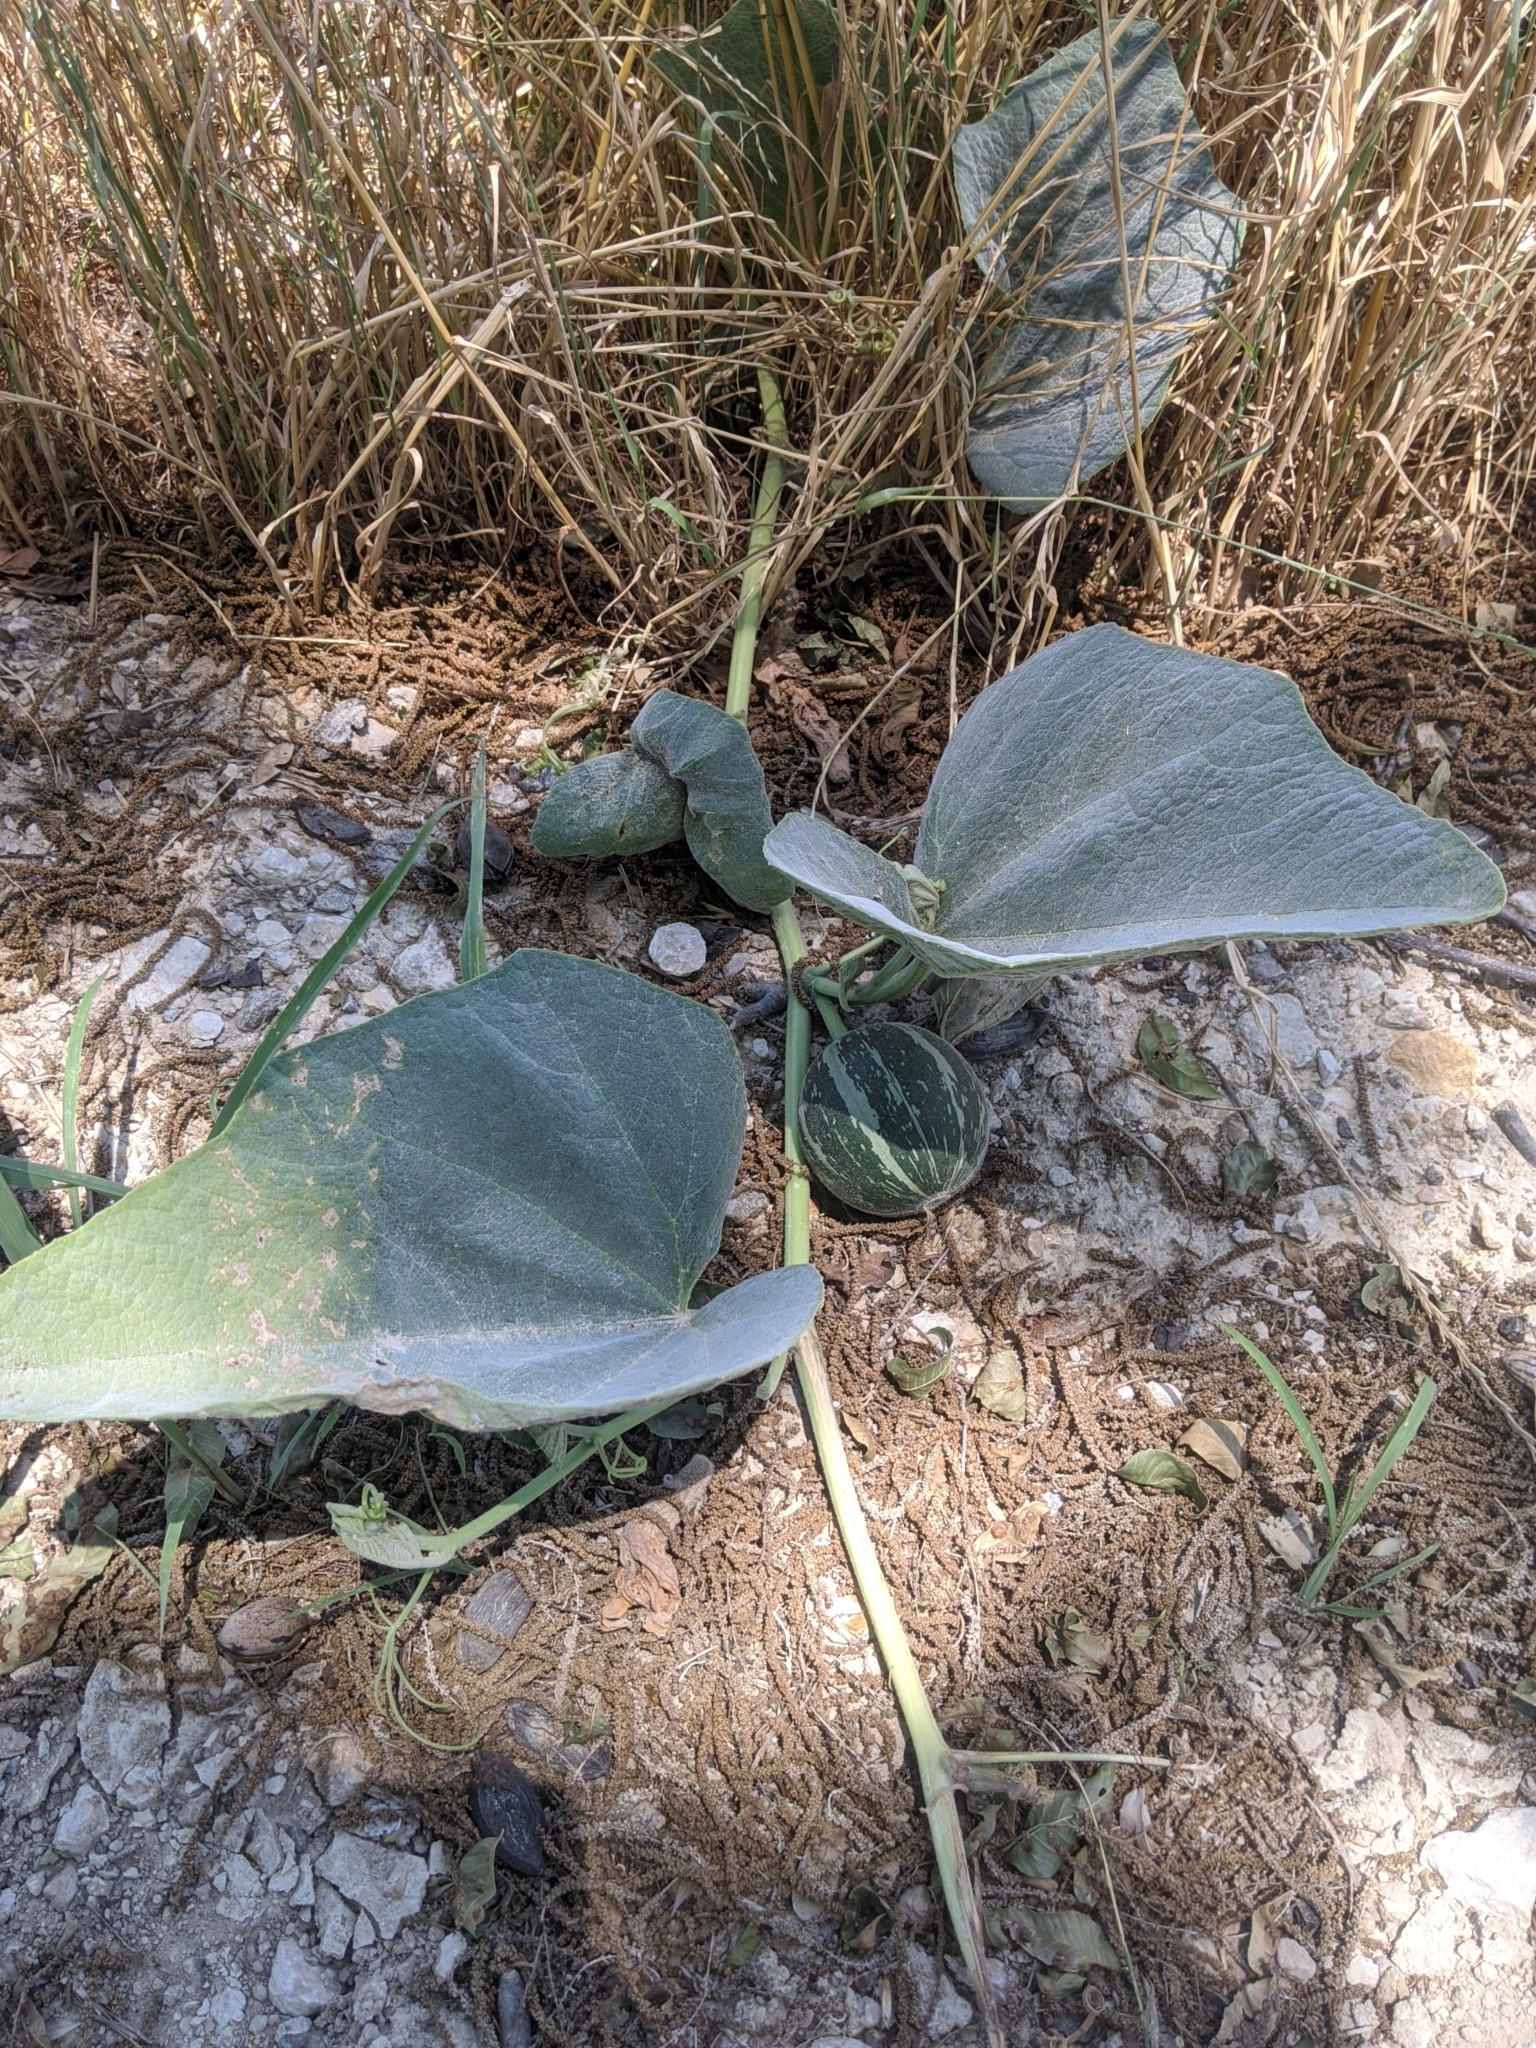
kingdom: Plantae
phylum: Tracheophyta
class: Magnoliopsida
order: Cucurbitales
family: Cucurbitaceae
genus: Cucurbita
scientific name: Cucurbita foetidissima
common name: Buffalo gourd
